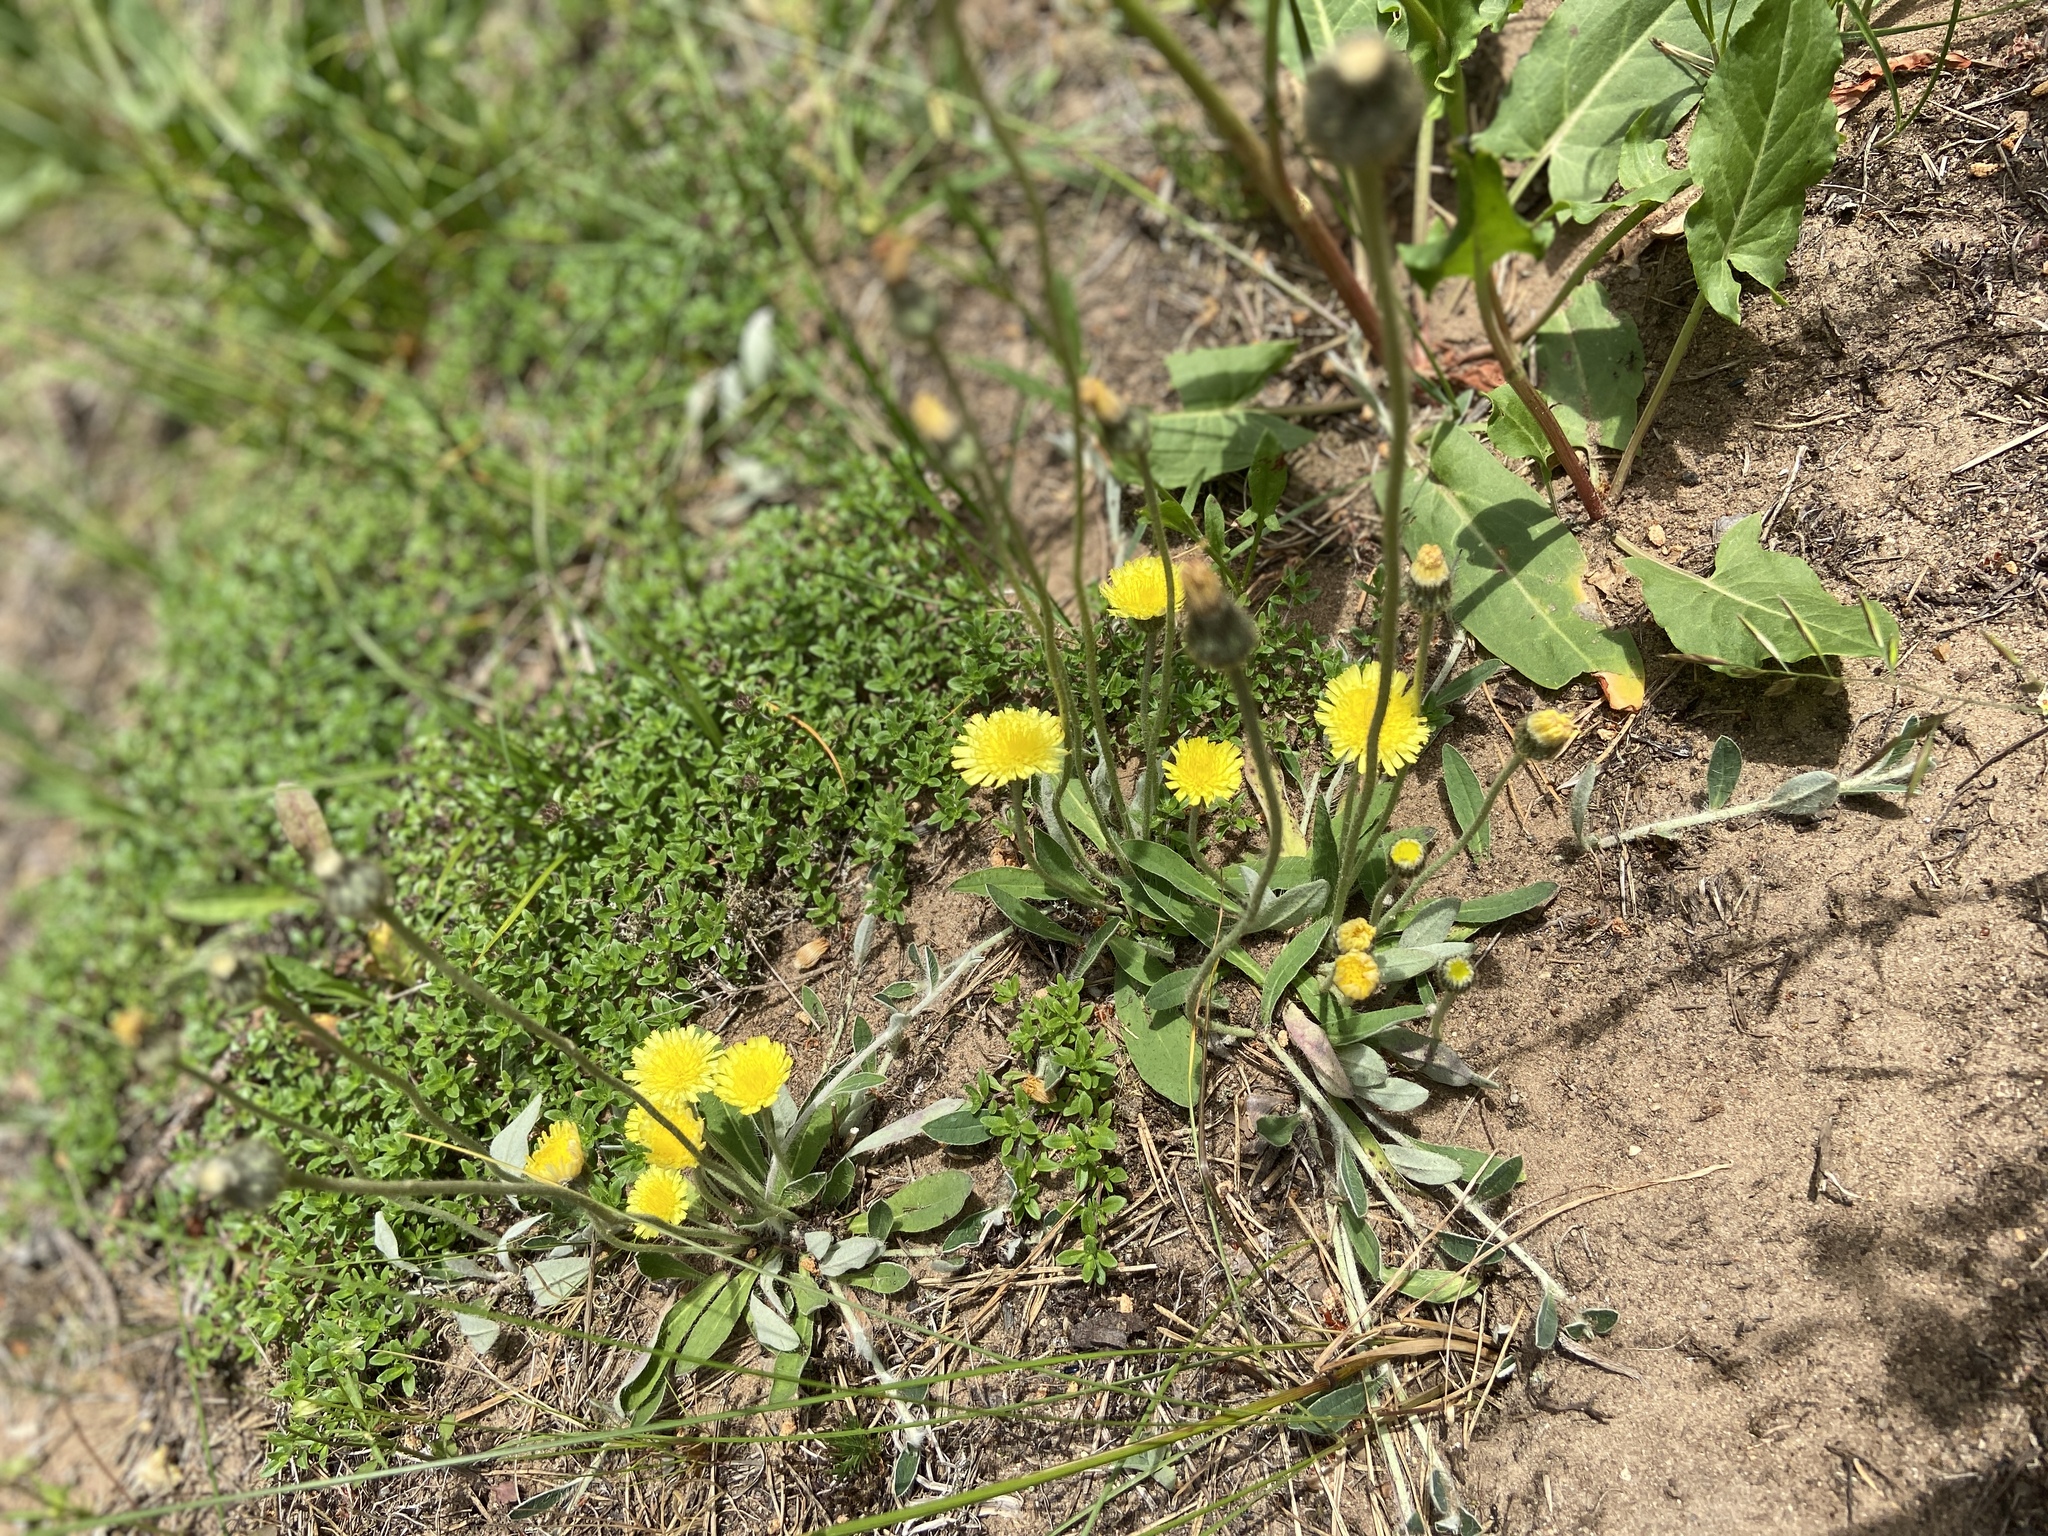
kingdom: Plantae
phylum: Tracheophyta
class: Magnoliopsida
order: Asterales
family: Asteraceae
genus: Pilosella
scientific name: Pilosella officinarum
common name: Mouse-ear hawkweed
